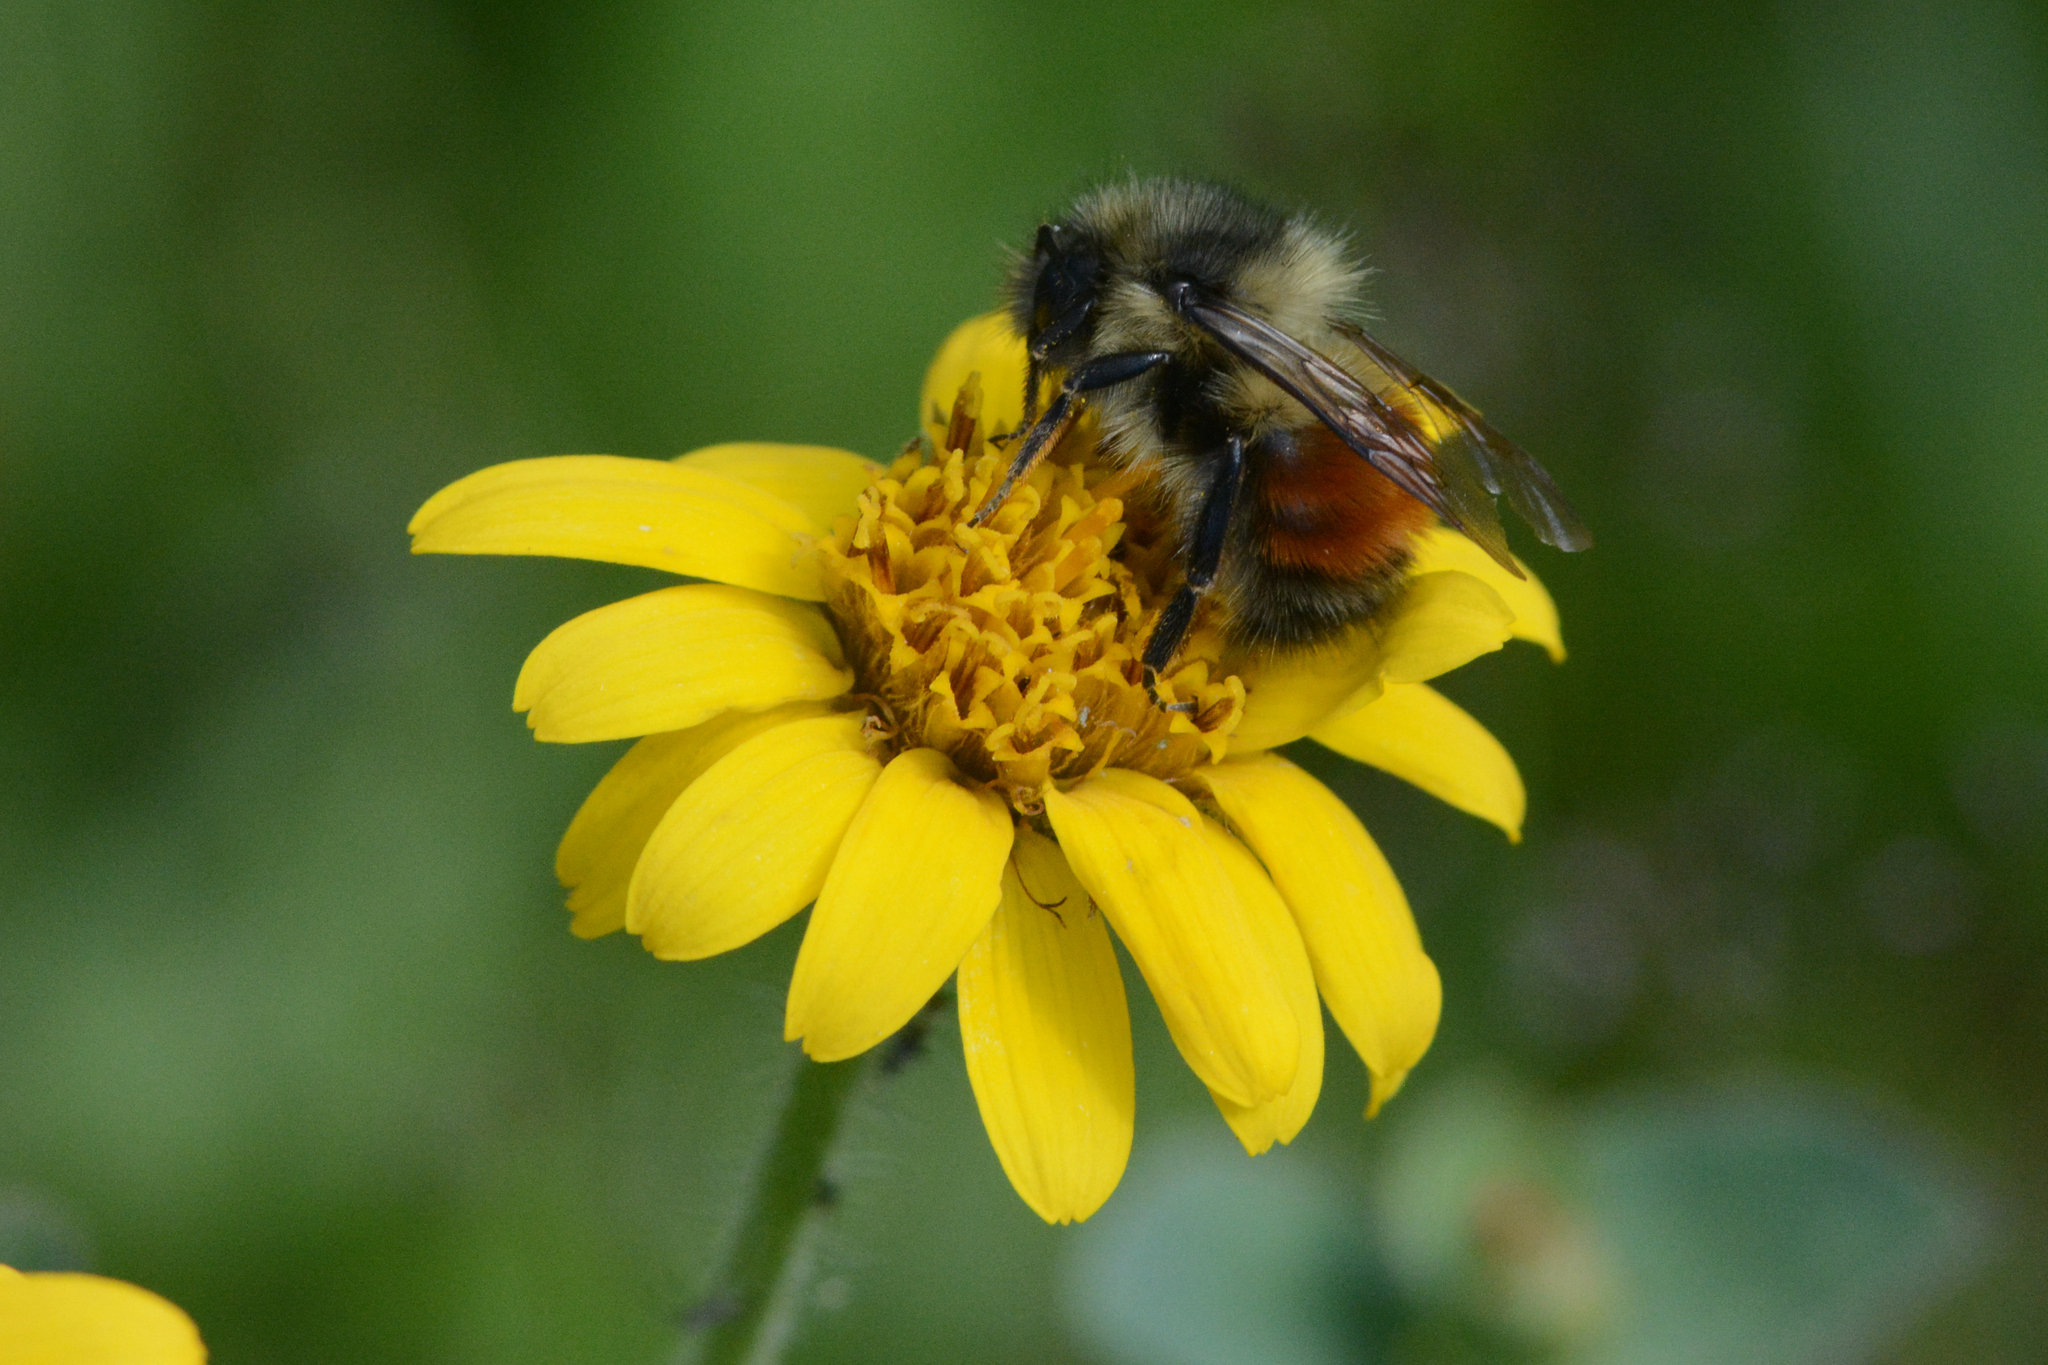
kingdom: Animalia
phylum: Arthropoda
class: Insecta
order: Hymenoptera
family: Apidae
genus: Bombus
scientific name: Bombus melanopygus
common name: Black tail bumble bee
